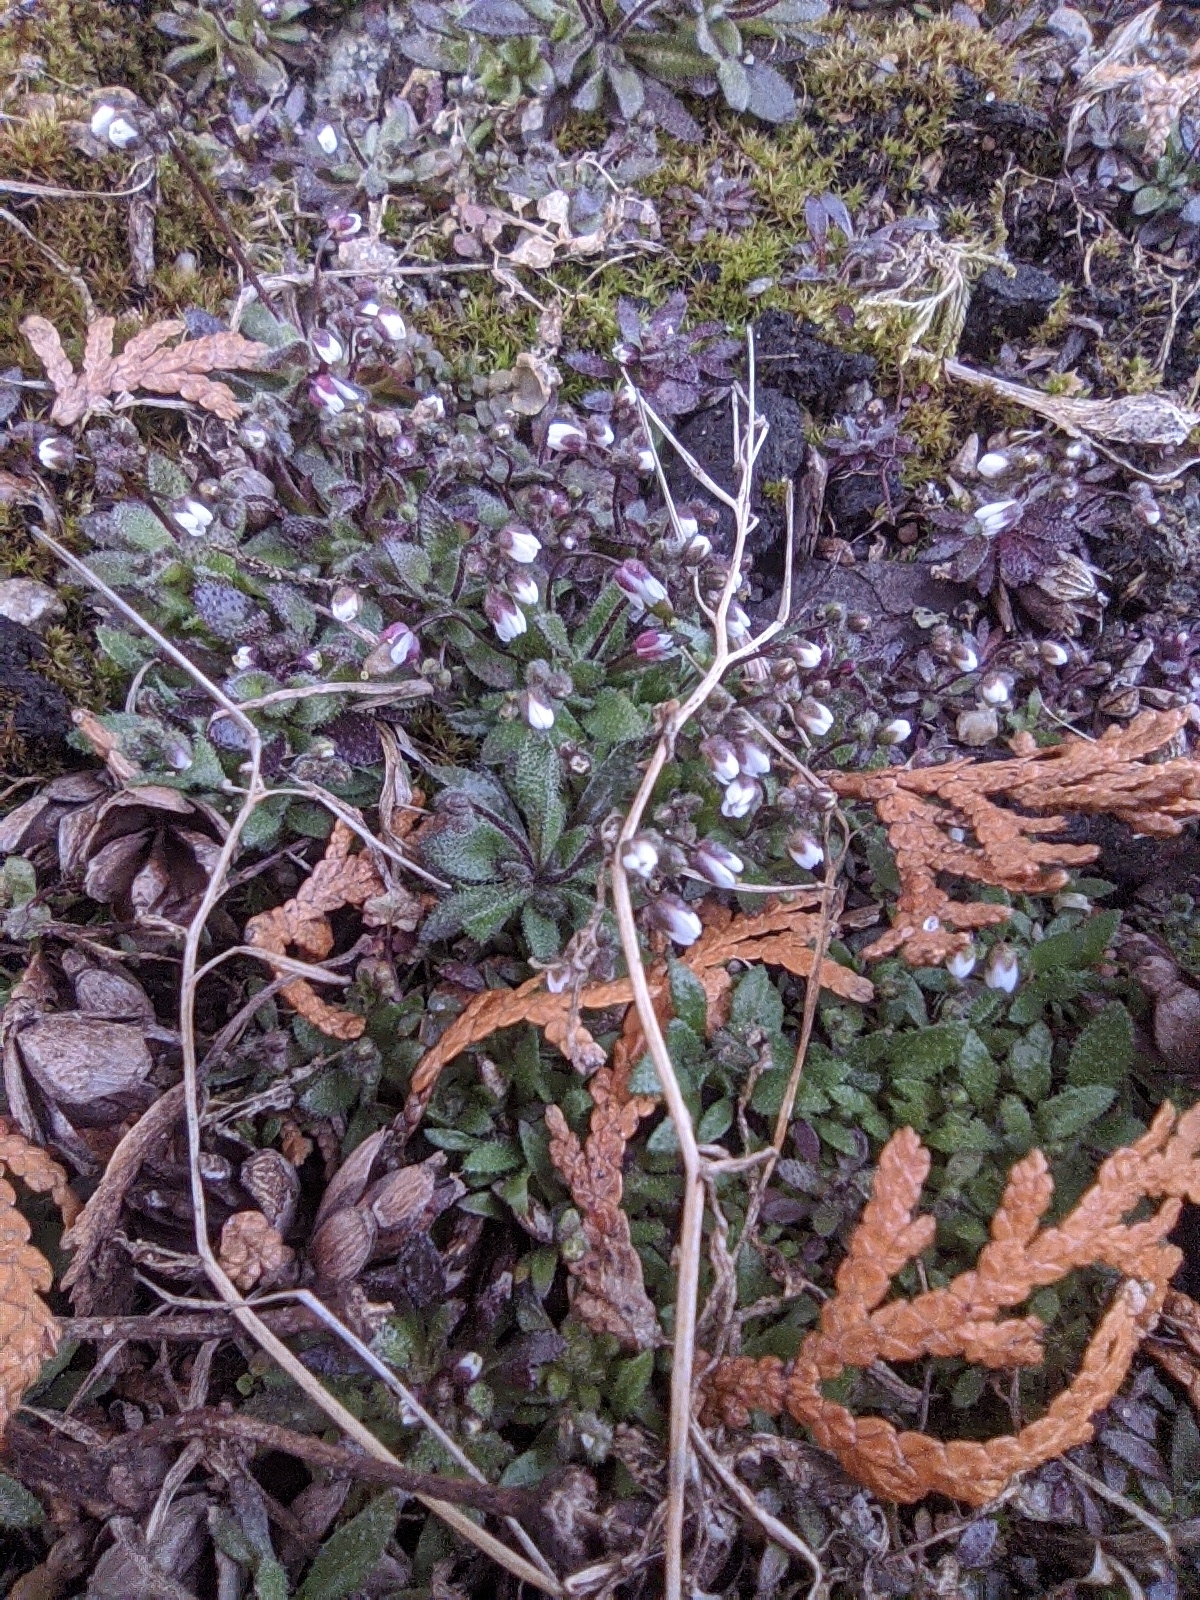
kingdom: Plantae
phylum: Tracheophyta
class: Magnoliopsida
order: Brassicales
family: Brassicaceae
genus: Draba
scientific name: Draba verna
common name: Spring draba
